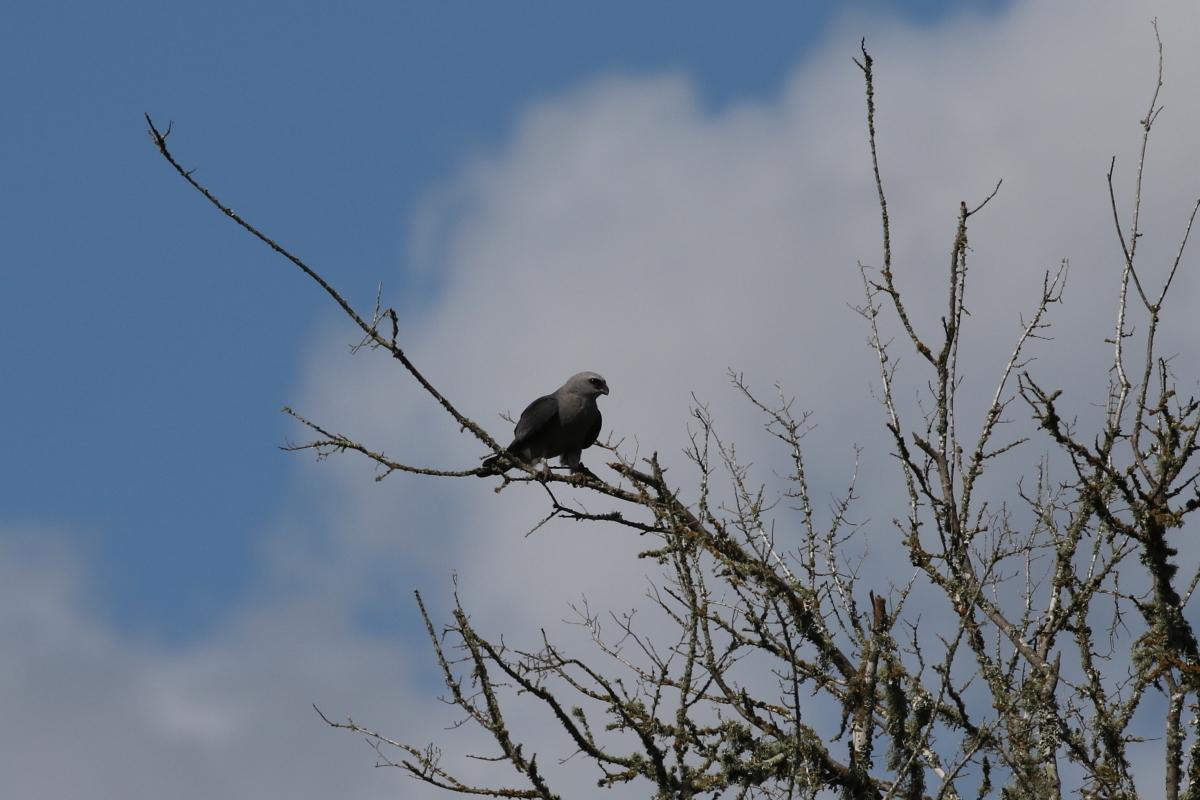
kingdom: Animalia
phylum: Chordata
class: Aves
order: Accipitriformes
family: Accipitridae
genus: Ictinia
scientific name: Ictinia mississippiensis
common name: Mississippi kite
